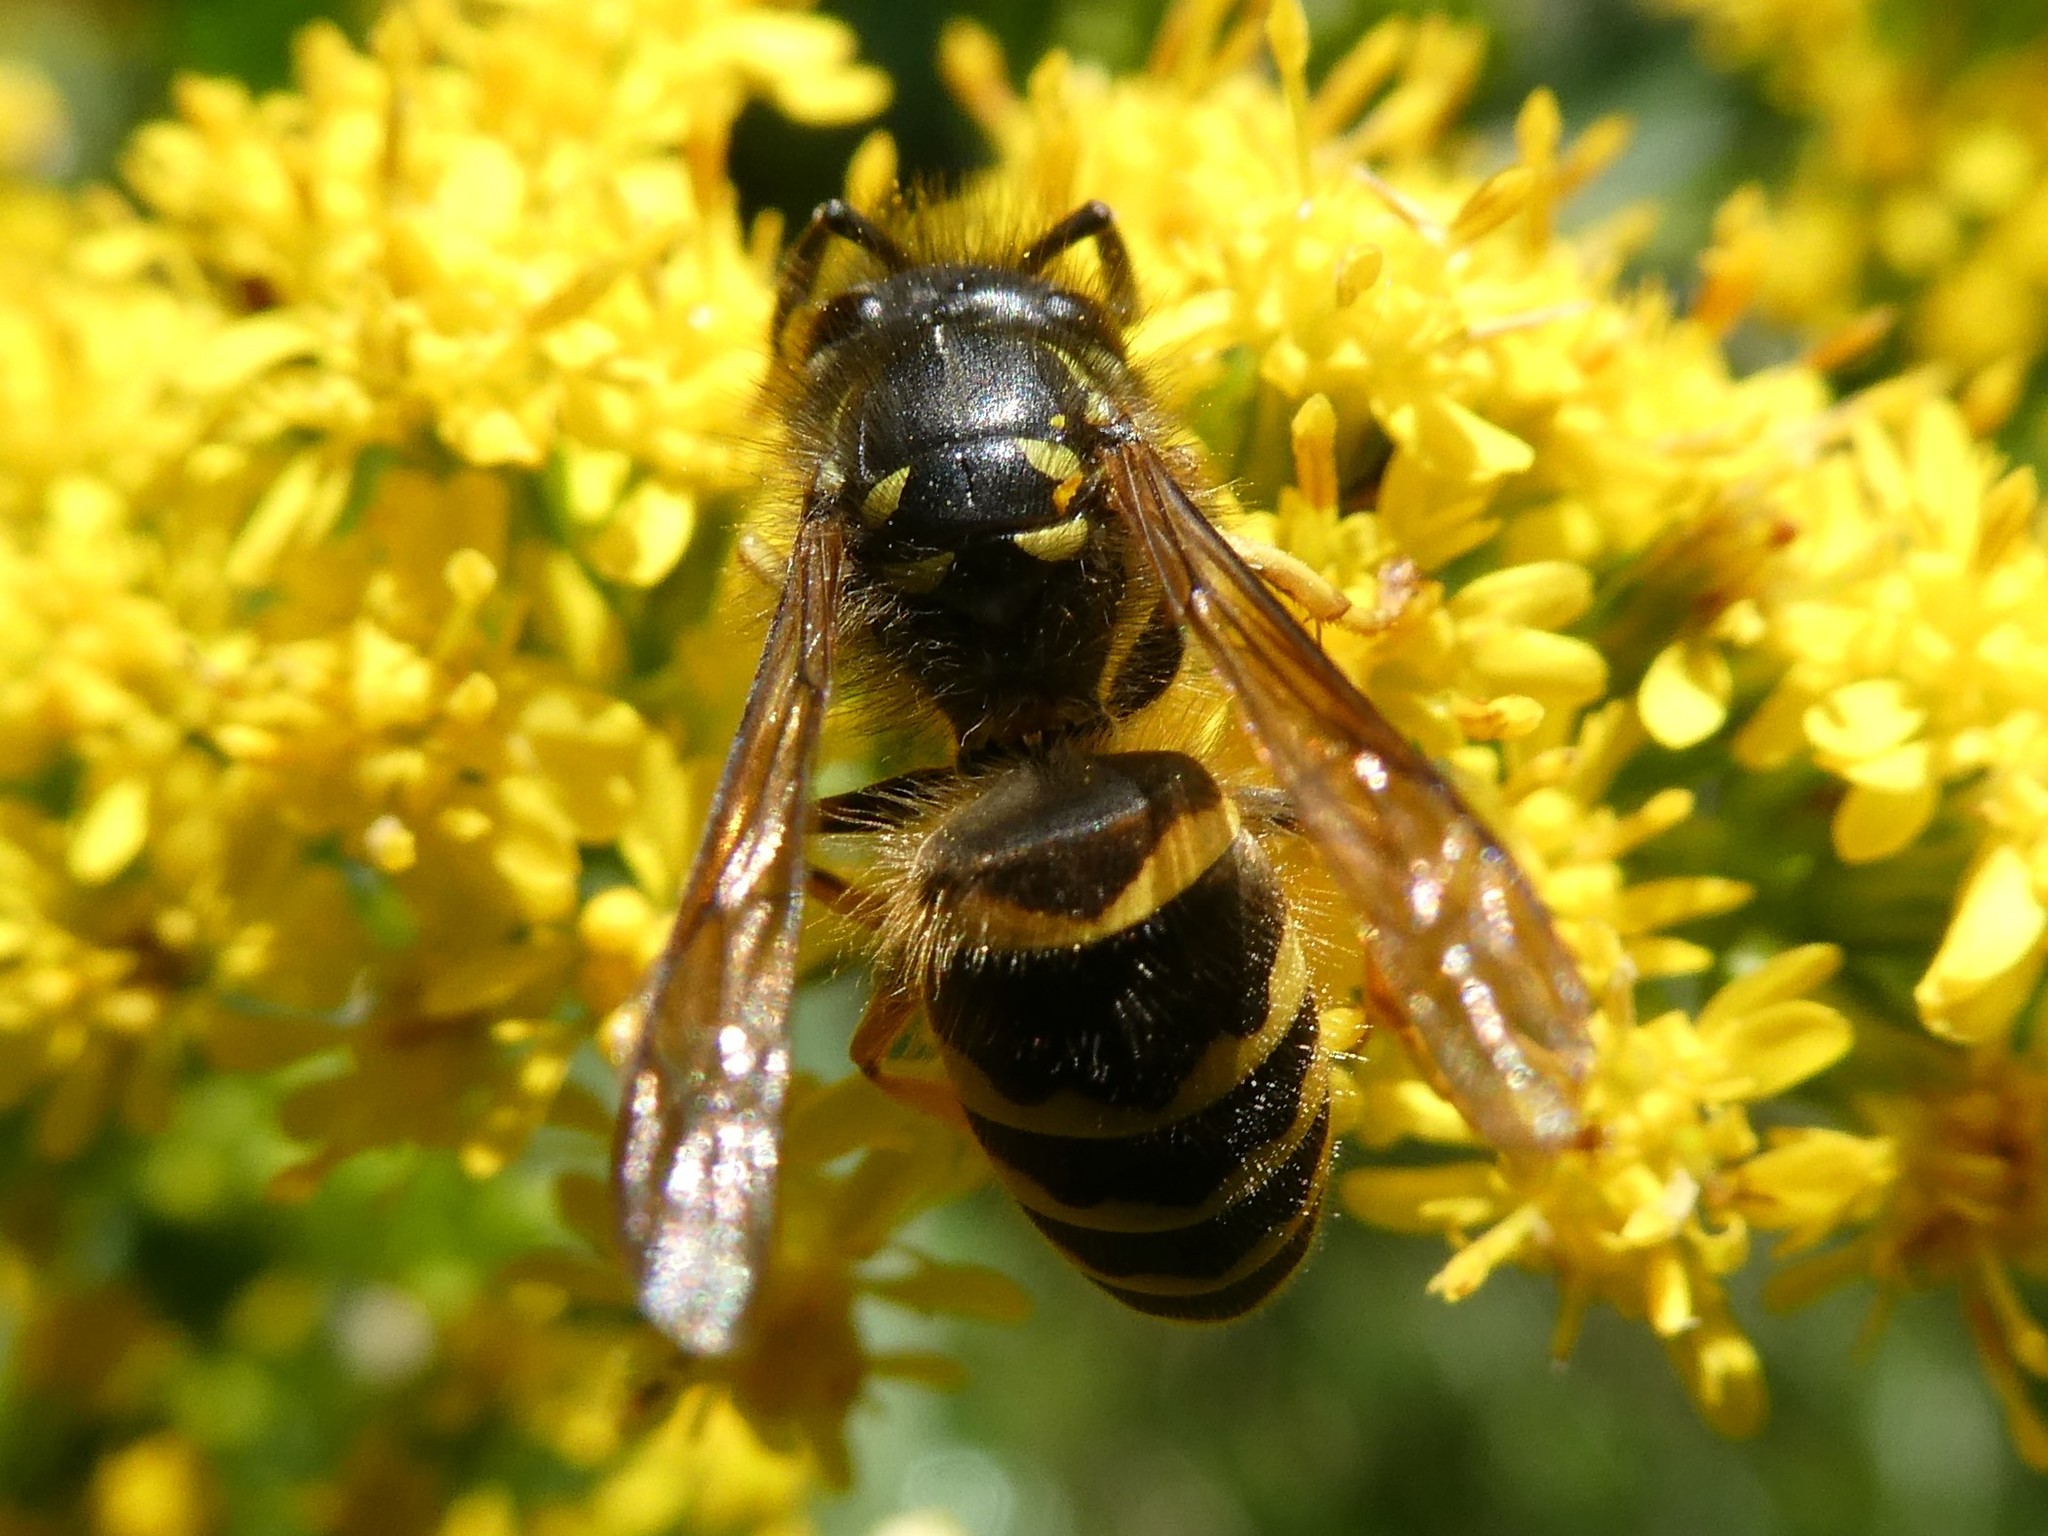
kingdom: Animalia
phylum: Arthropoda
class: Insecta
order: Hymenoptera
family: Vespidae
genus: Vespula
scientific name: Vespula alascensis
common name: Alaska yellowjacket
